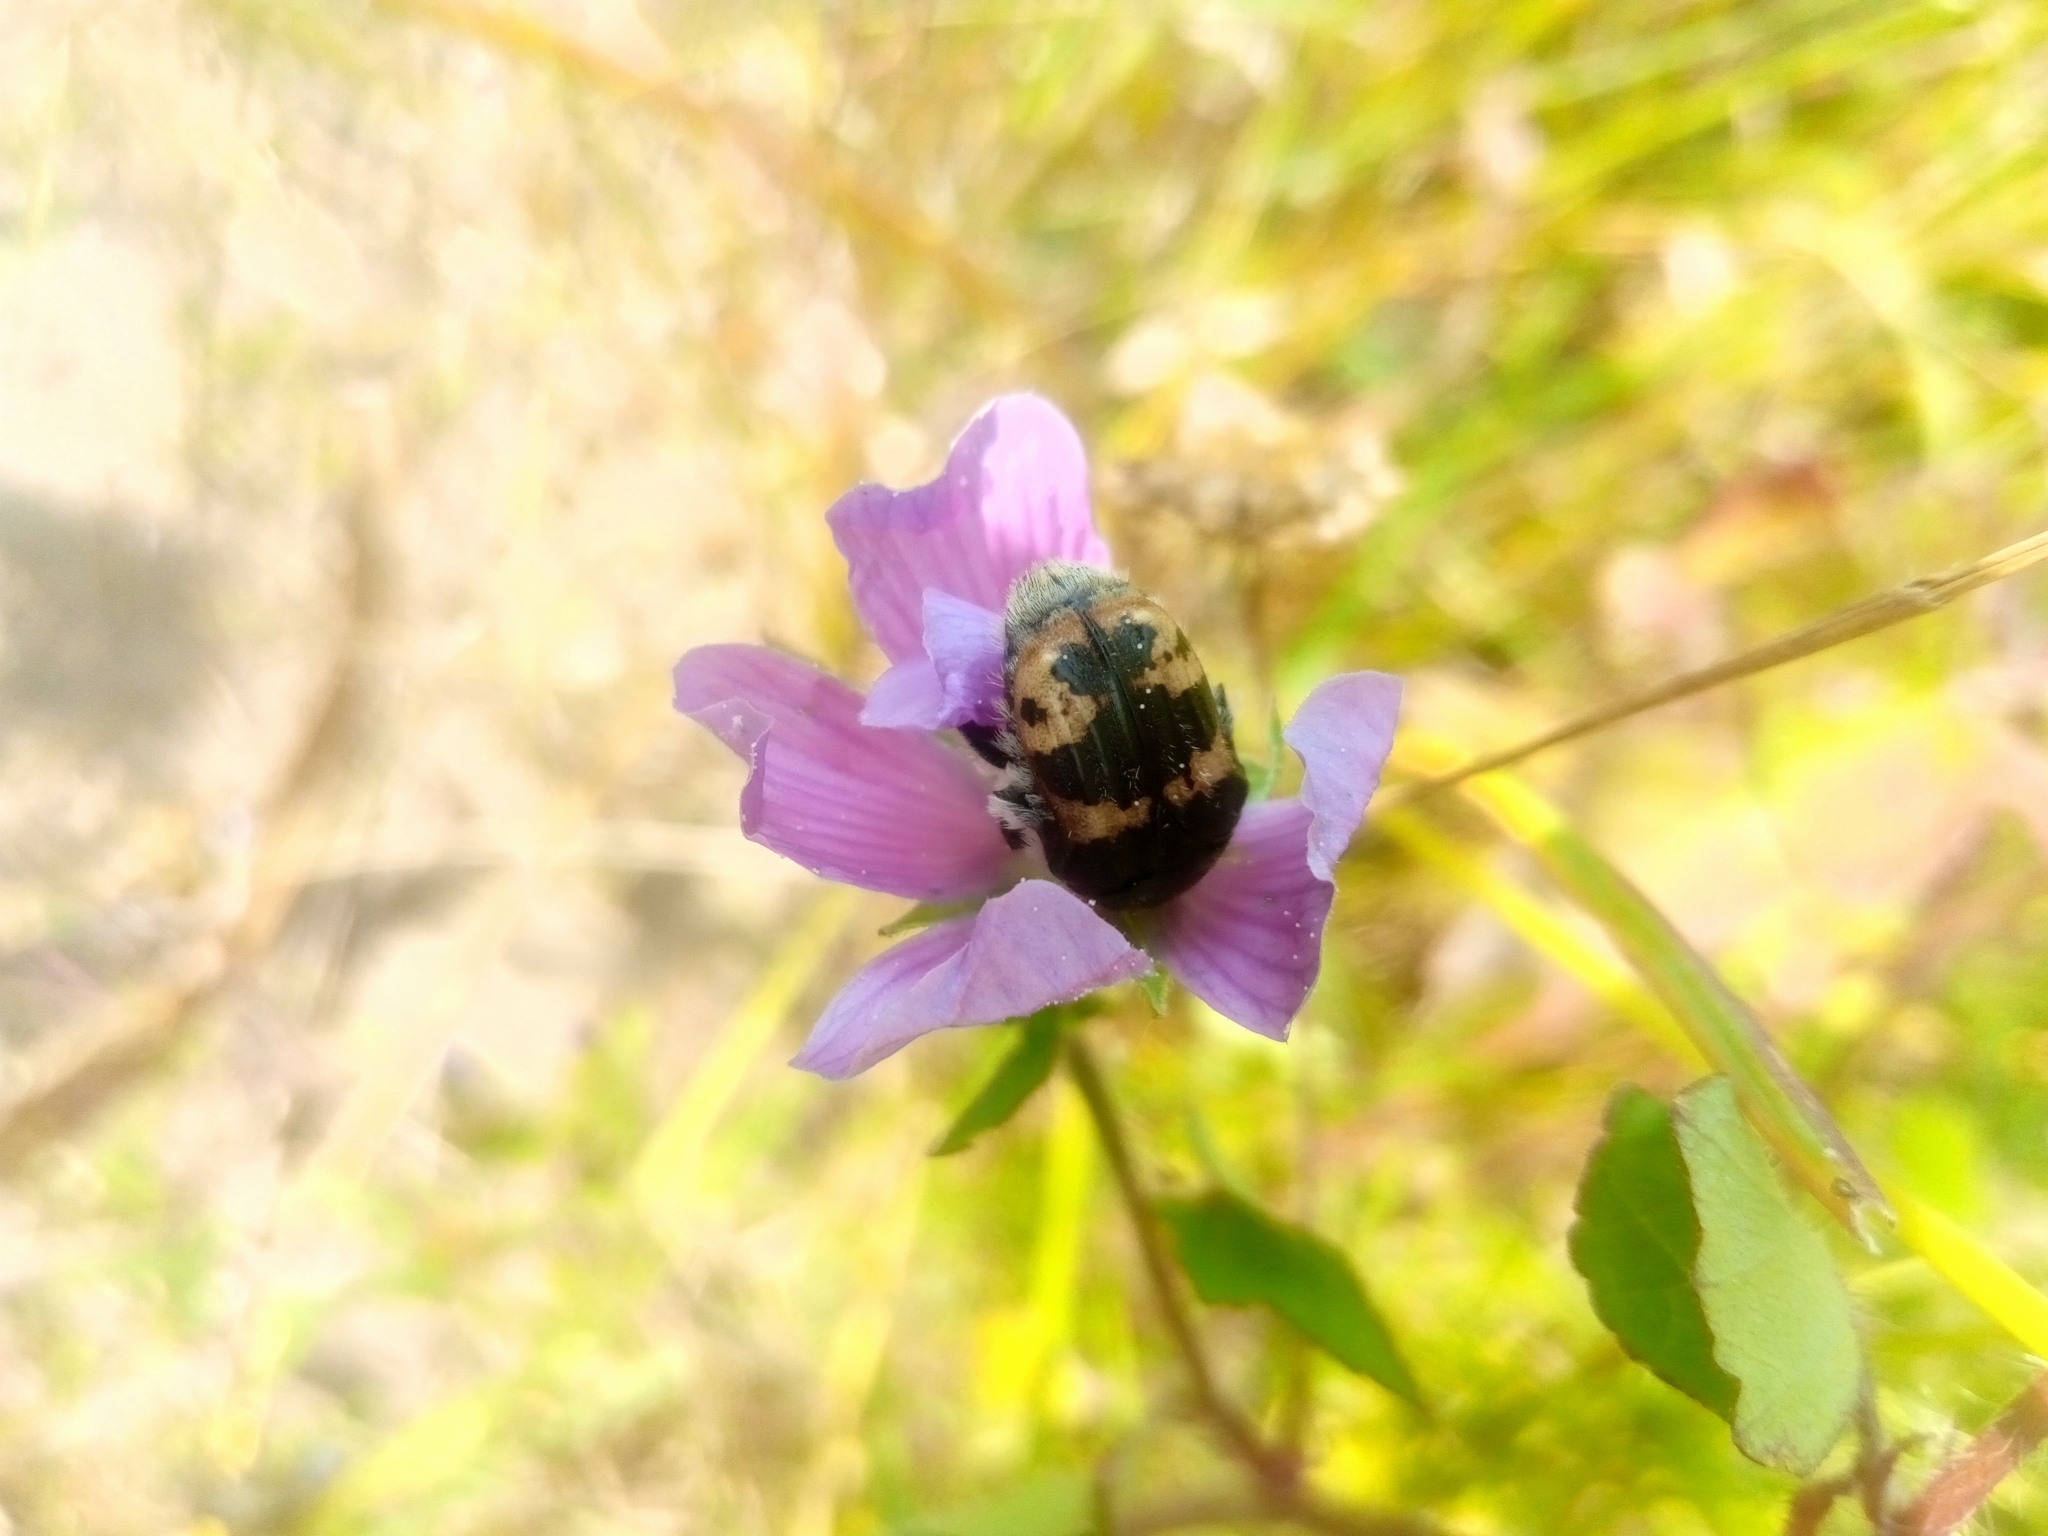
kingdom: Animalia
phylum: Arthropoda
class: Insecta
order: Coleoptera
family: Scarabaeidae
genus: Euphoria
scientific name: Euphoria basalis
